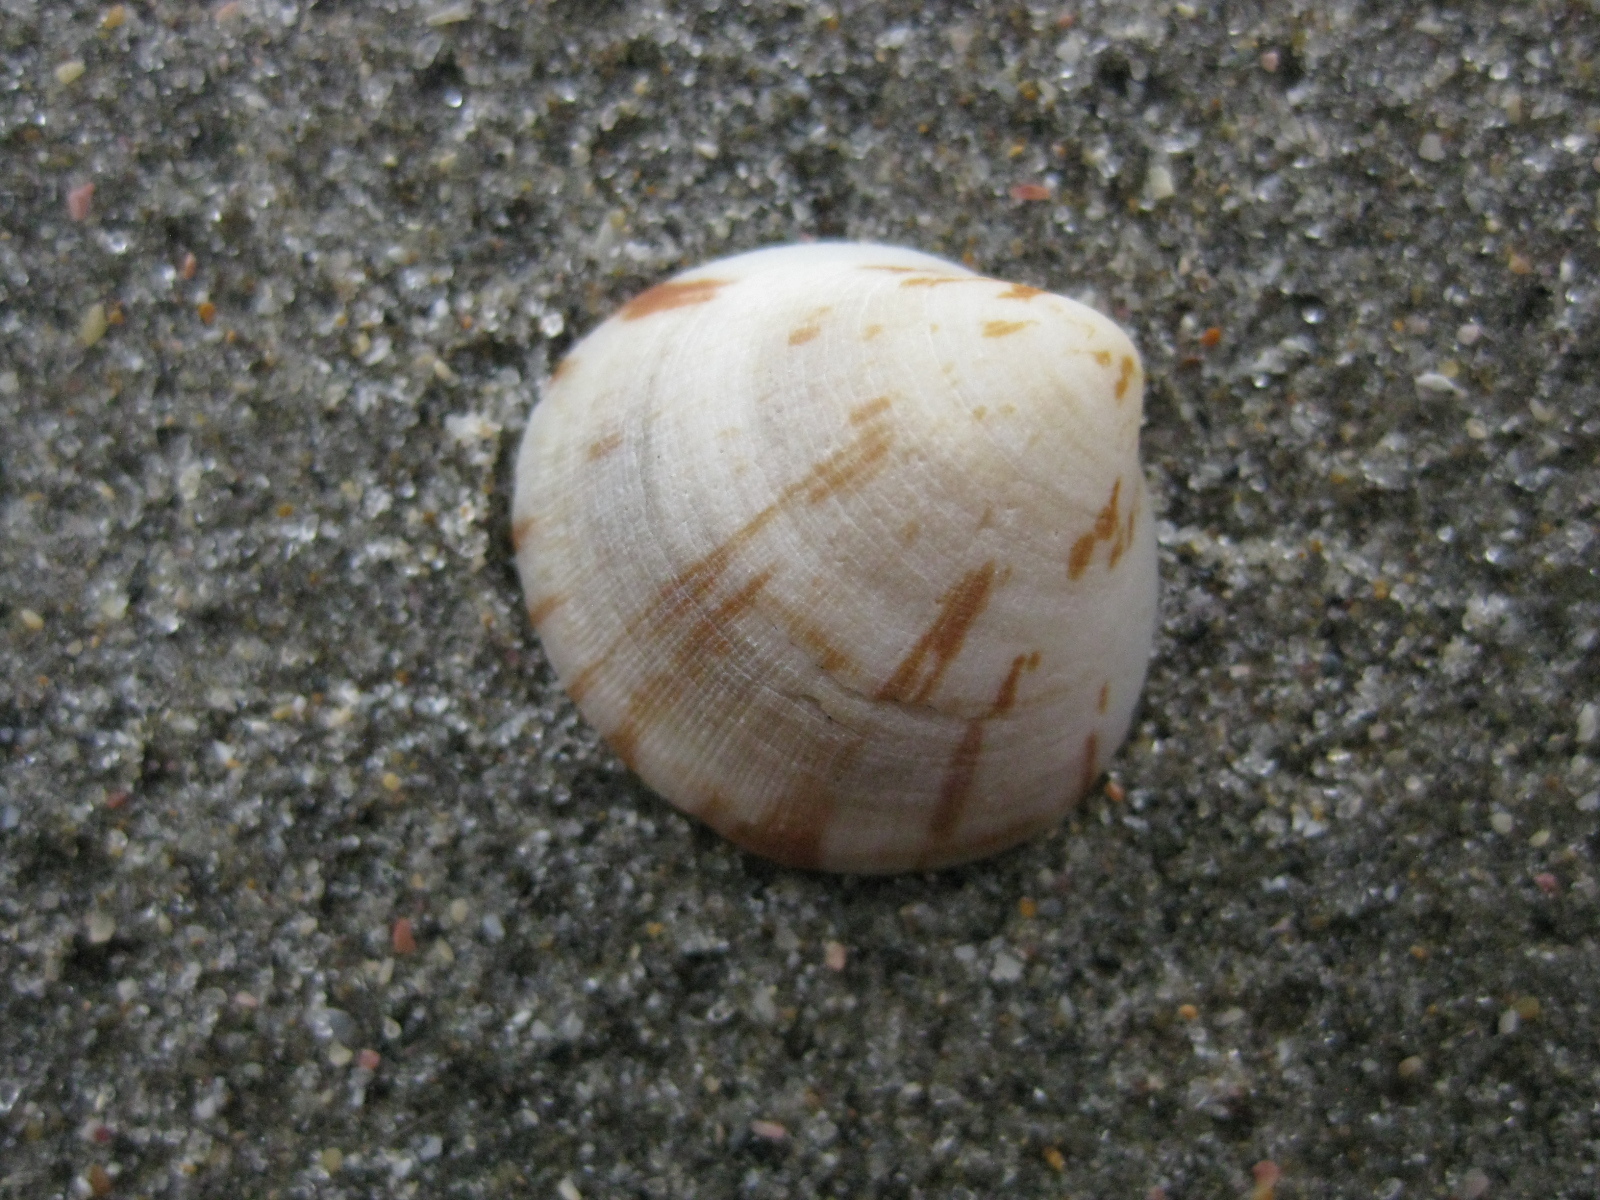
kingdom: Animalia
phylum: Mollusca
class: Bivalvia
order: Arcida
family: Glycymerididae
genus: Glycymeris
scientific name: Glycymeris modesta
